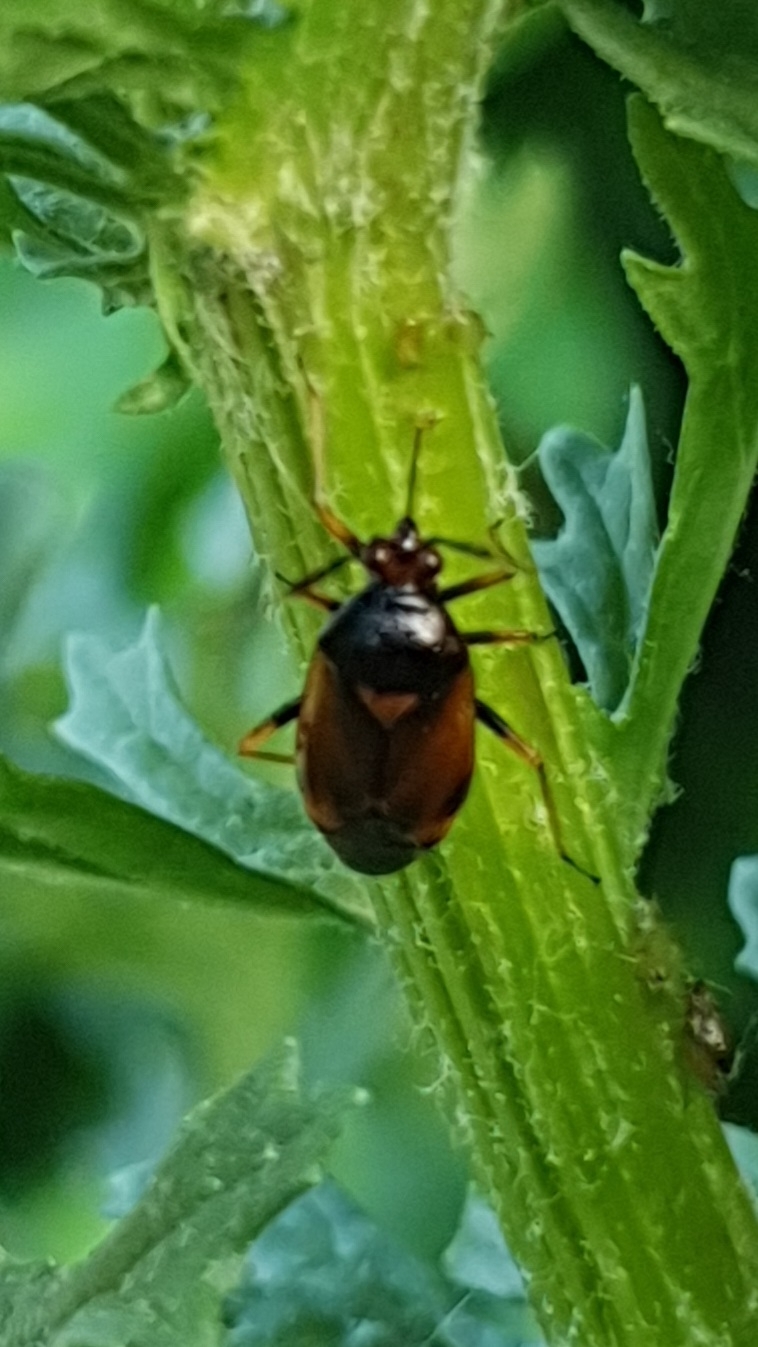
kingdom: Animalia
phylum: Arthropoda
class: Insecta
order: Hemiptera
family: Miridae
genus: Deraeocoris
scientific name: Deraeocoris ruber
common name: Plant bug
